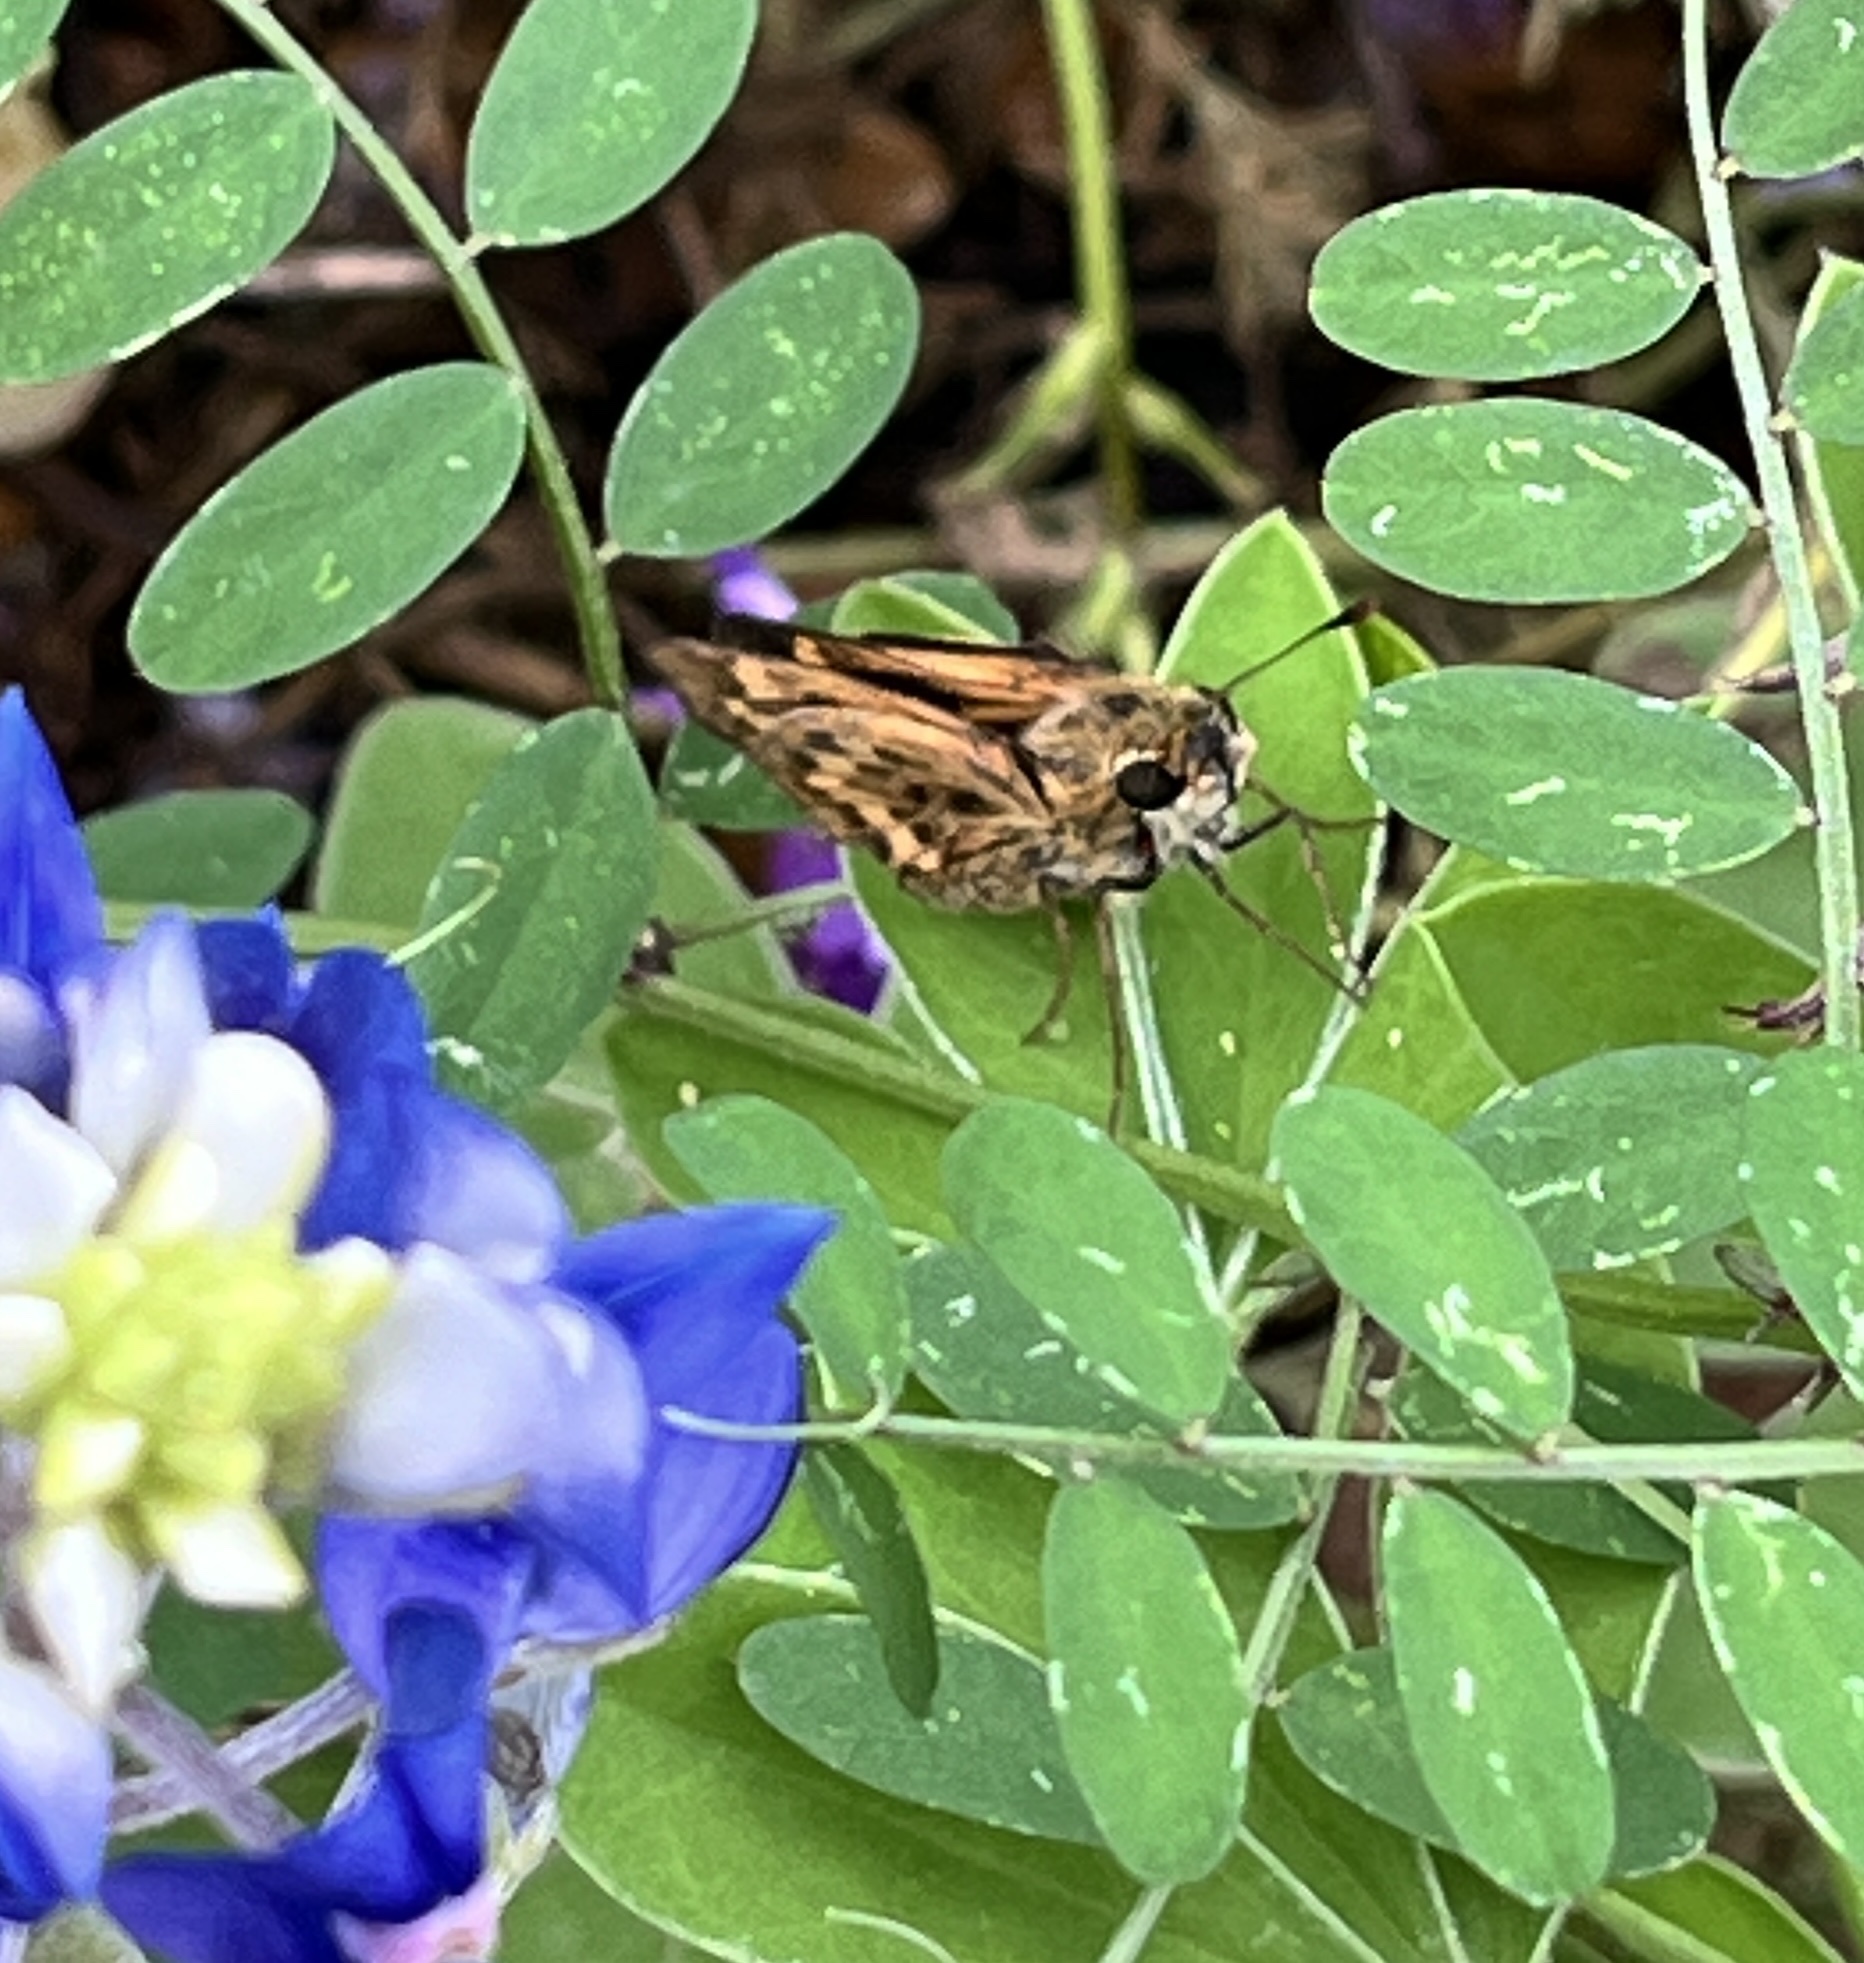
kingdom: Animalia
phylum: Arthropoda
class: Insecta
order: Lepidoptera
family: Hesperiidae
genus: Hylephila
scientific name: Hylephila phyleus
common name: Fiery skipper
